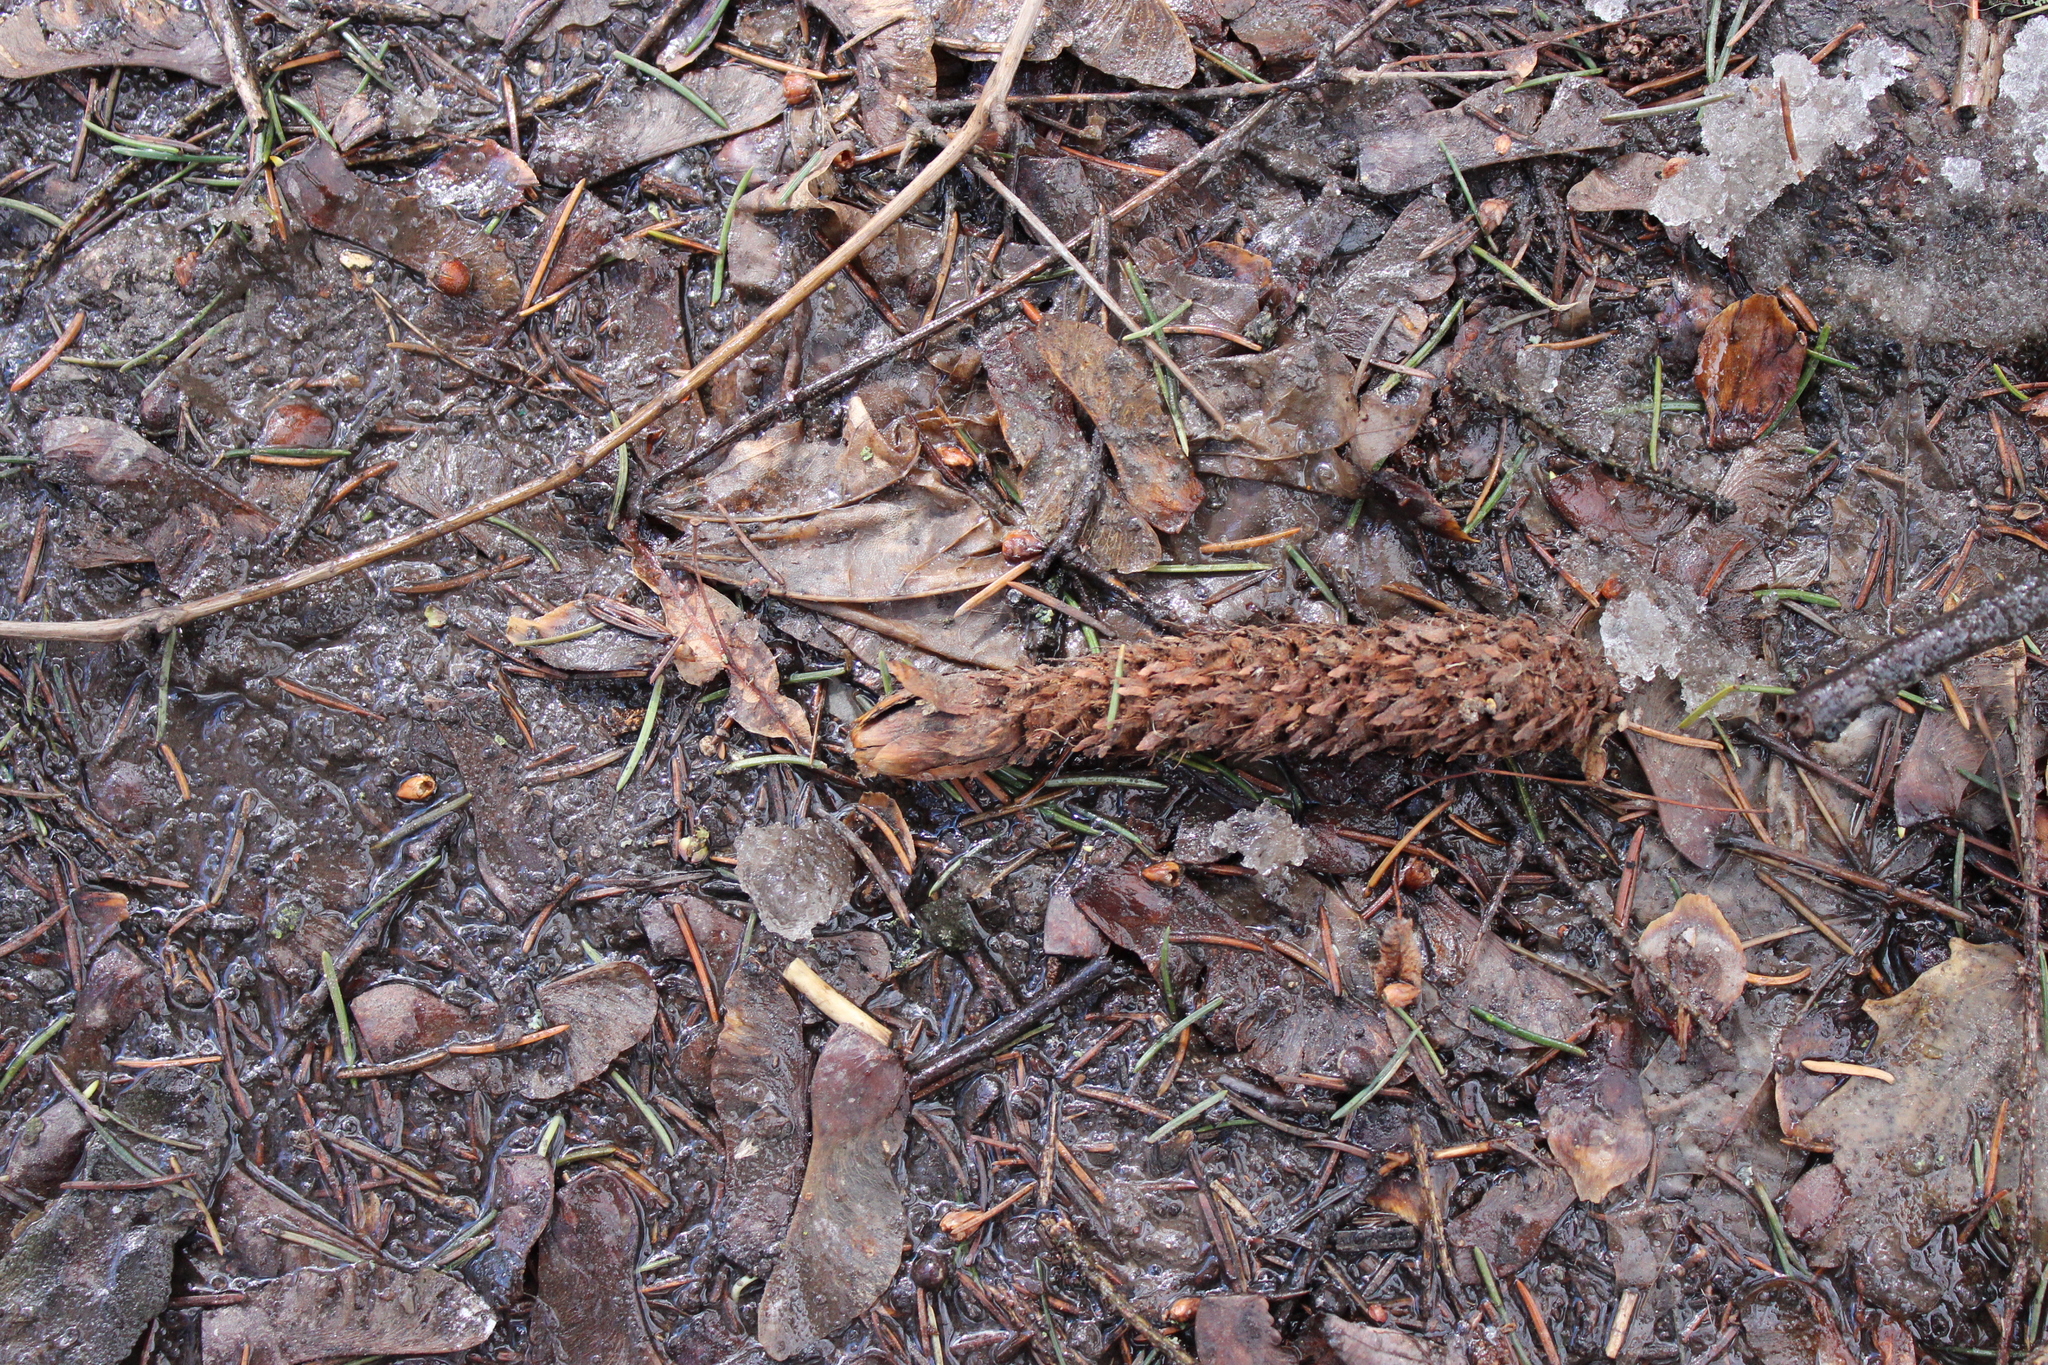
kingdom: Animalia
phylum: Chordata
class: Mammalia
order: Rodentia
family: Sciuridae
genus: Sciurus
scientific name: Sciurus vulgaris
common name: Eurasian red squirrel
